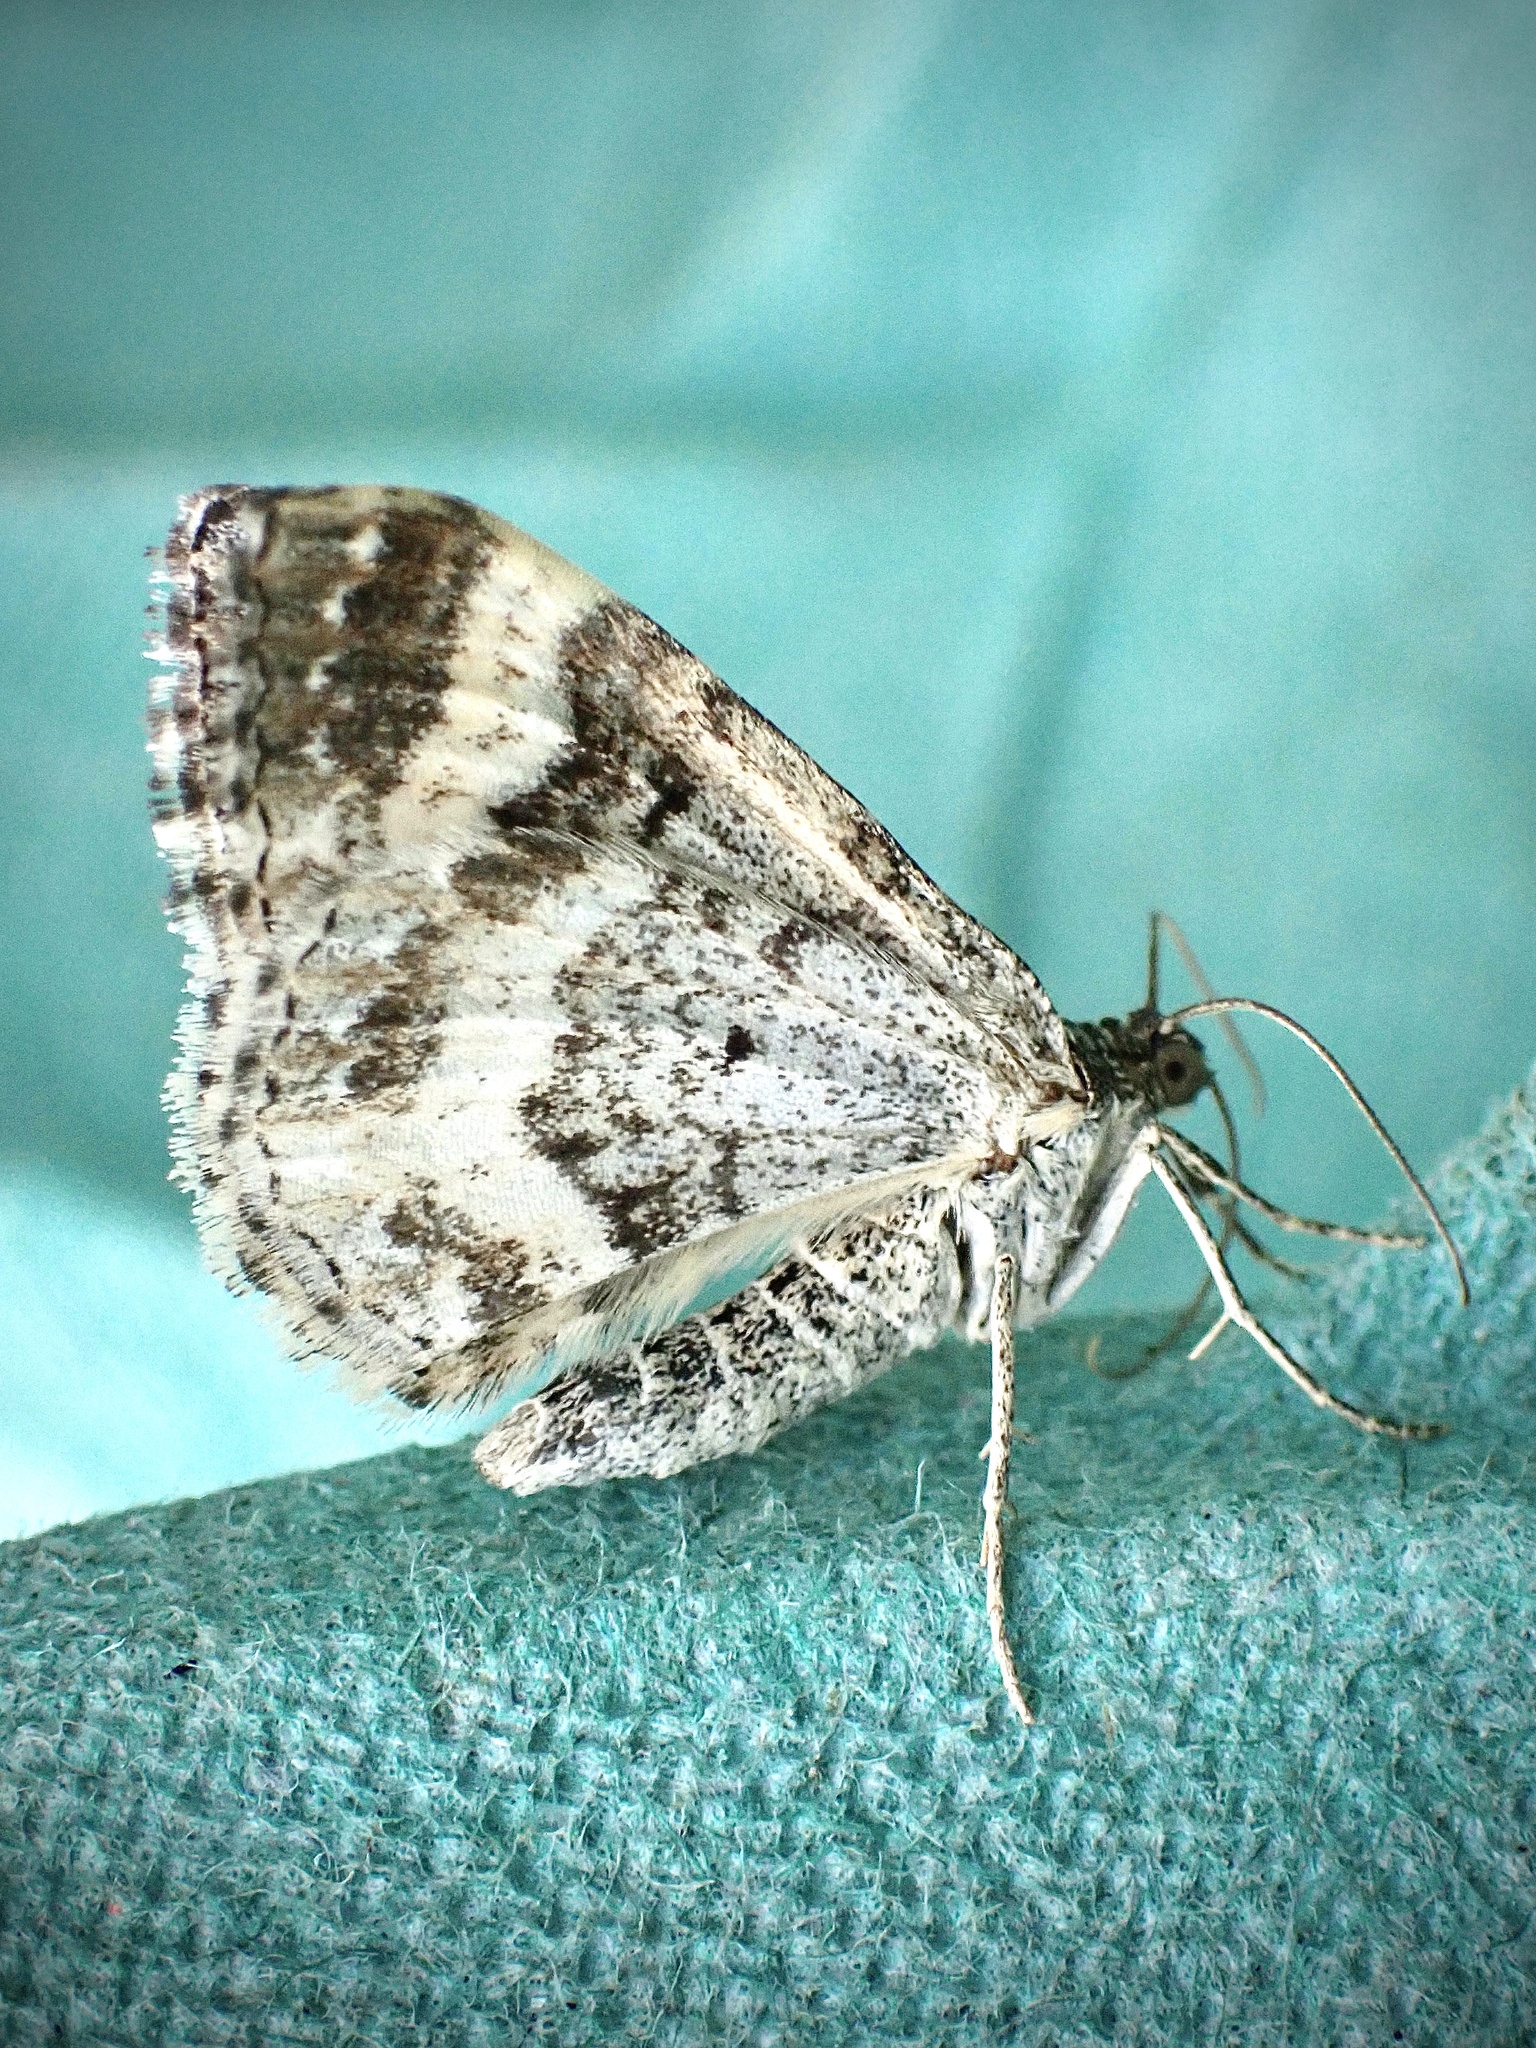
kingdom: Animalia
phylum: Arthropoda
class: Insecta
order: Lepidoptera
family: Geometridae
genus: Epirrhoe
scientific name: Epirrhoe alternata
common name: Common carpet
